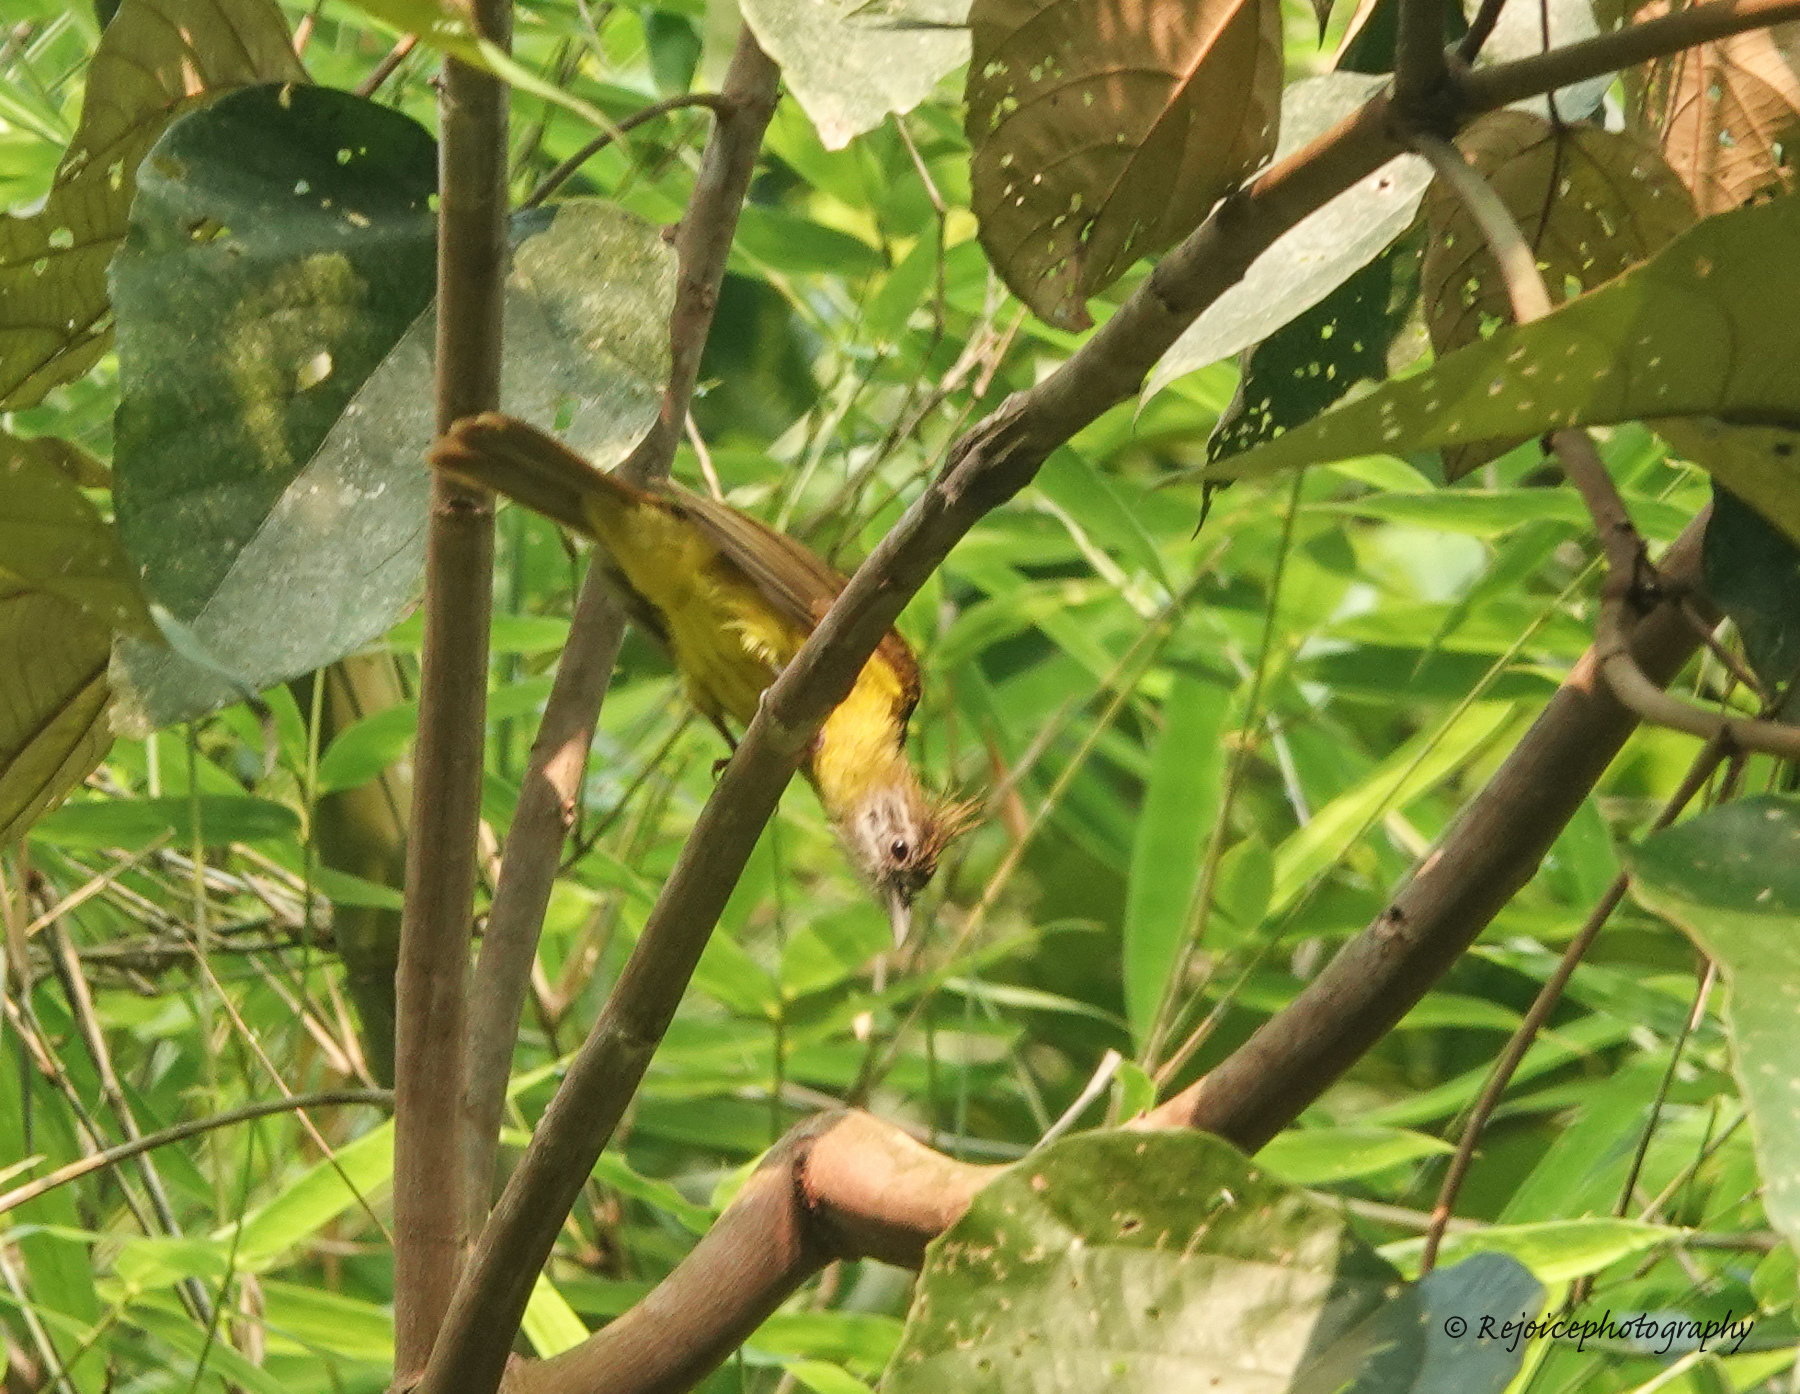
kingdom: Animalia
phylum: Chordata
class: Aves
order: Passeriformes
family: Pycnonotidae
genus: Alophoixus
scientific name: Alophoixus flaveolus
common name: White-throated bulbul
